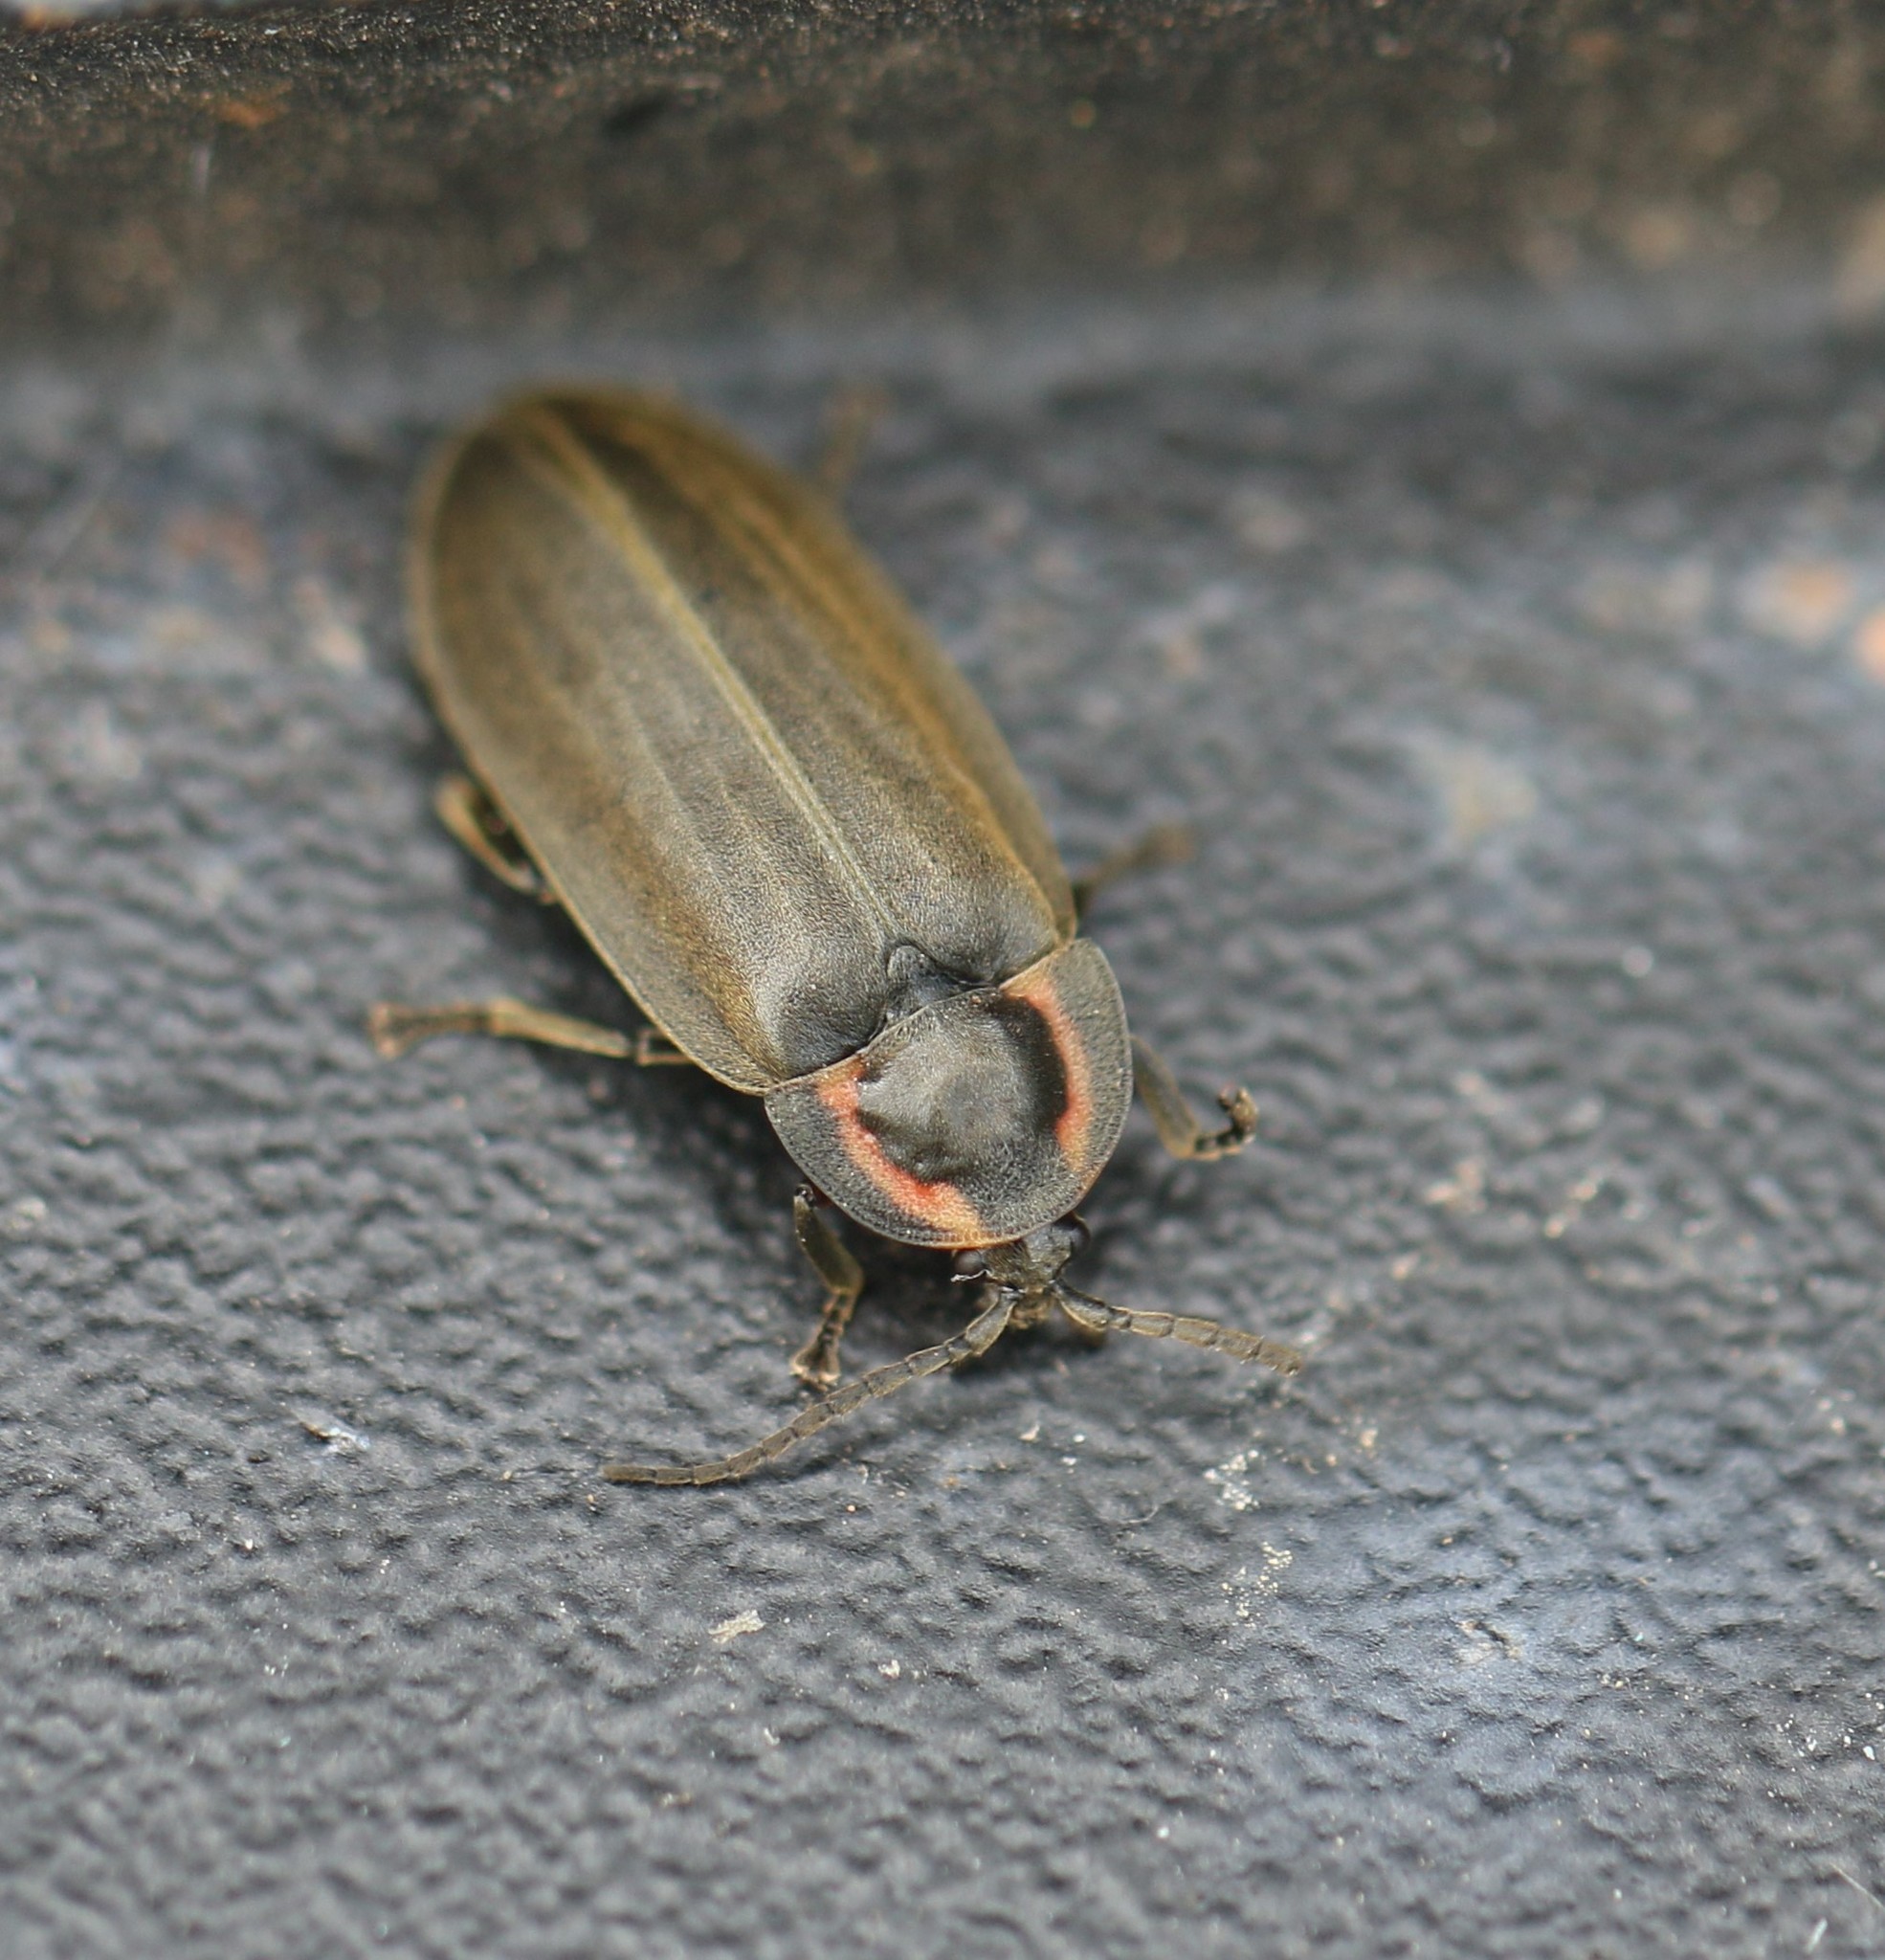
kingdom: Animalia
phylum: Arthropoda
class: Insecta
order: Coleoptera
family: Lampyridae
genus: Photinus
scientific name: Photinus corrusca
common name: Winter firefly
